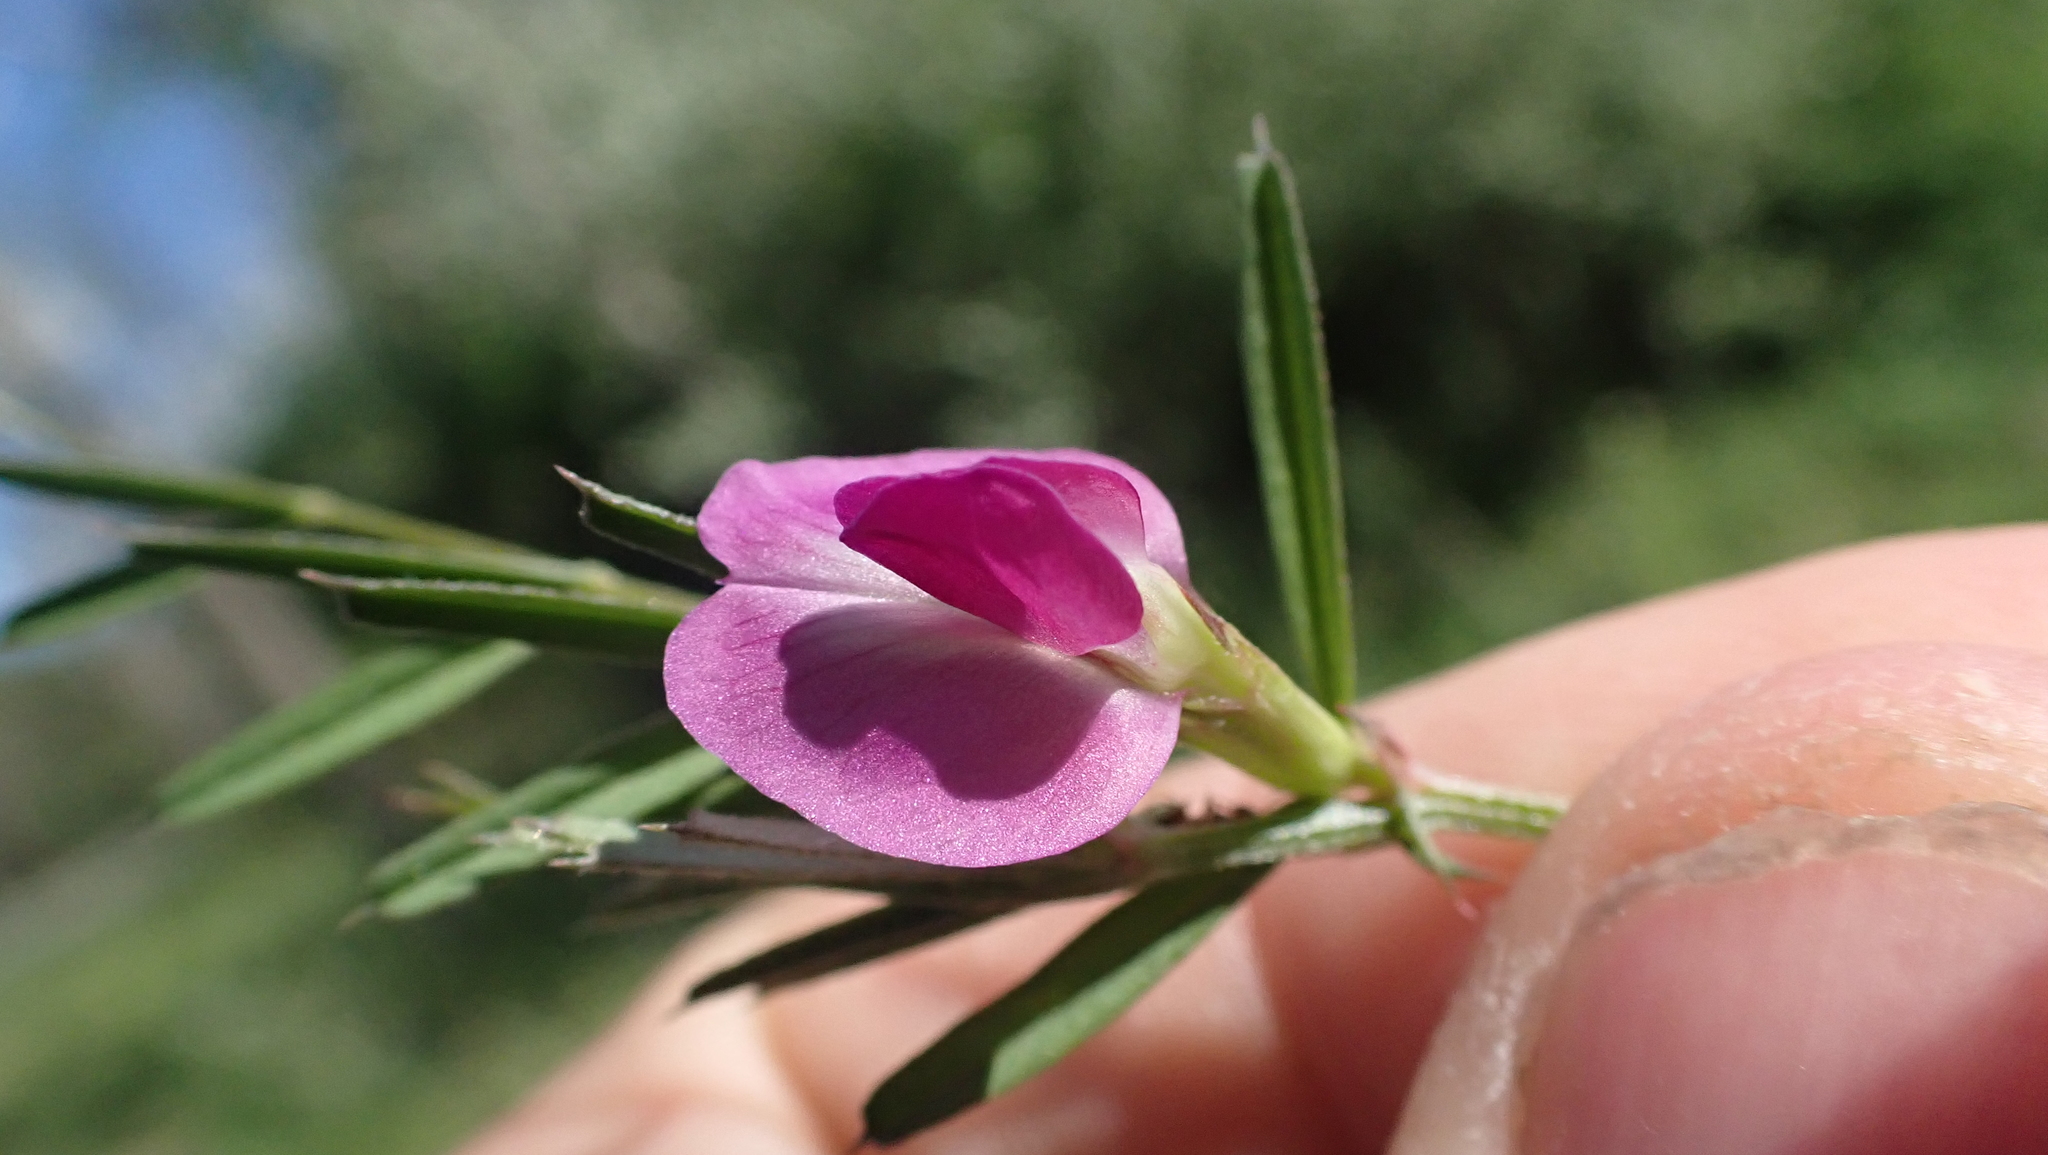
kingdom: Plantae
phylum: Tracheophyta
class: Magnoliopsida
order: Fabales
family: Fabaceae
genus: Vicia
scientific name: Vicia sativa
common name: Garden vetch
